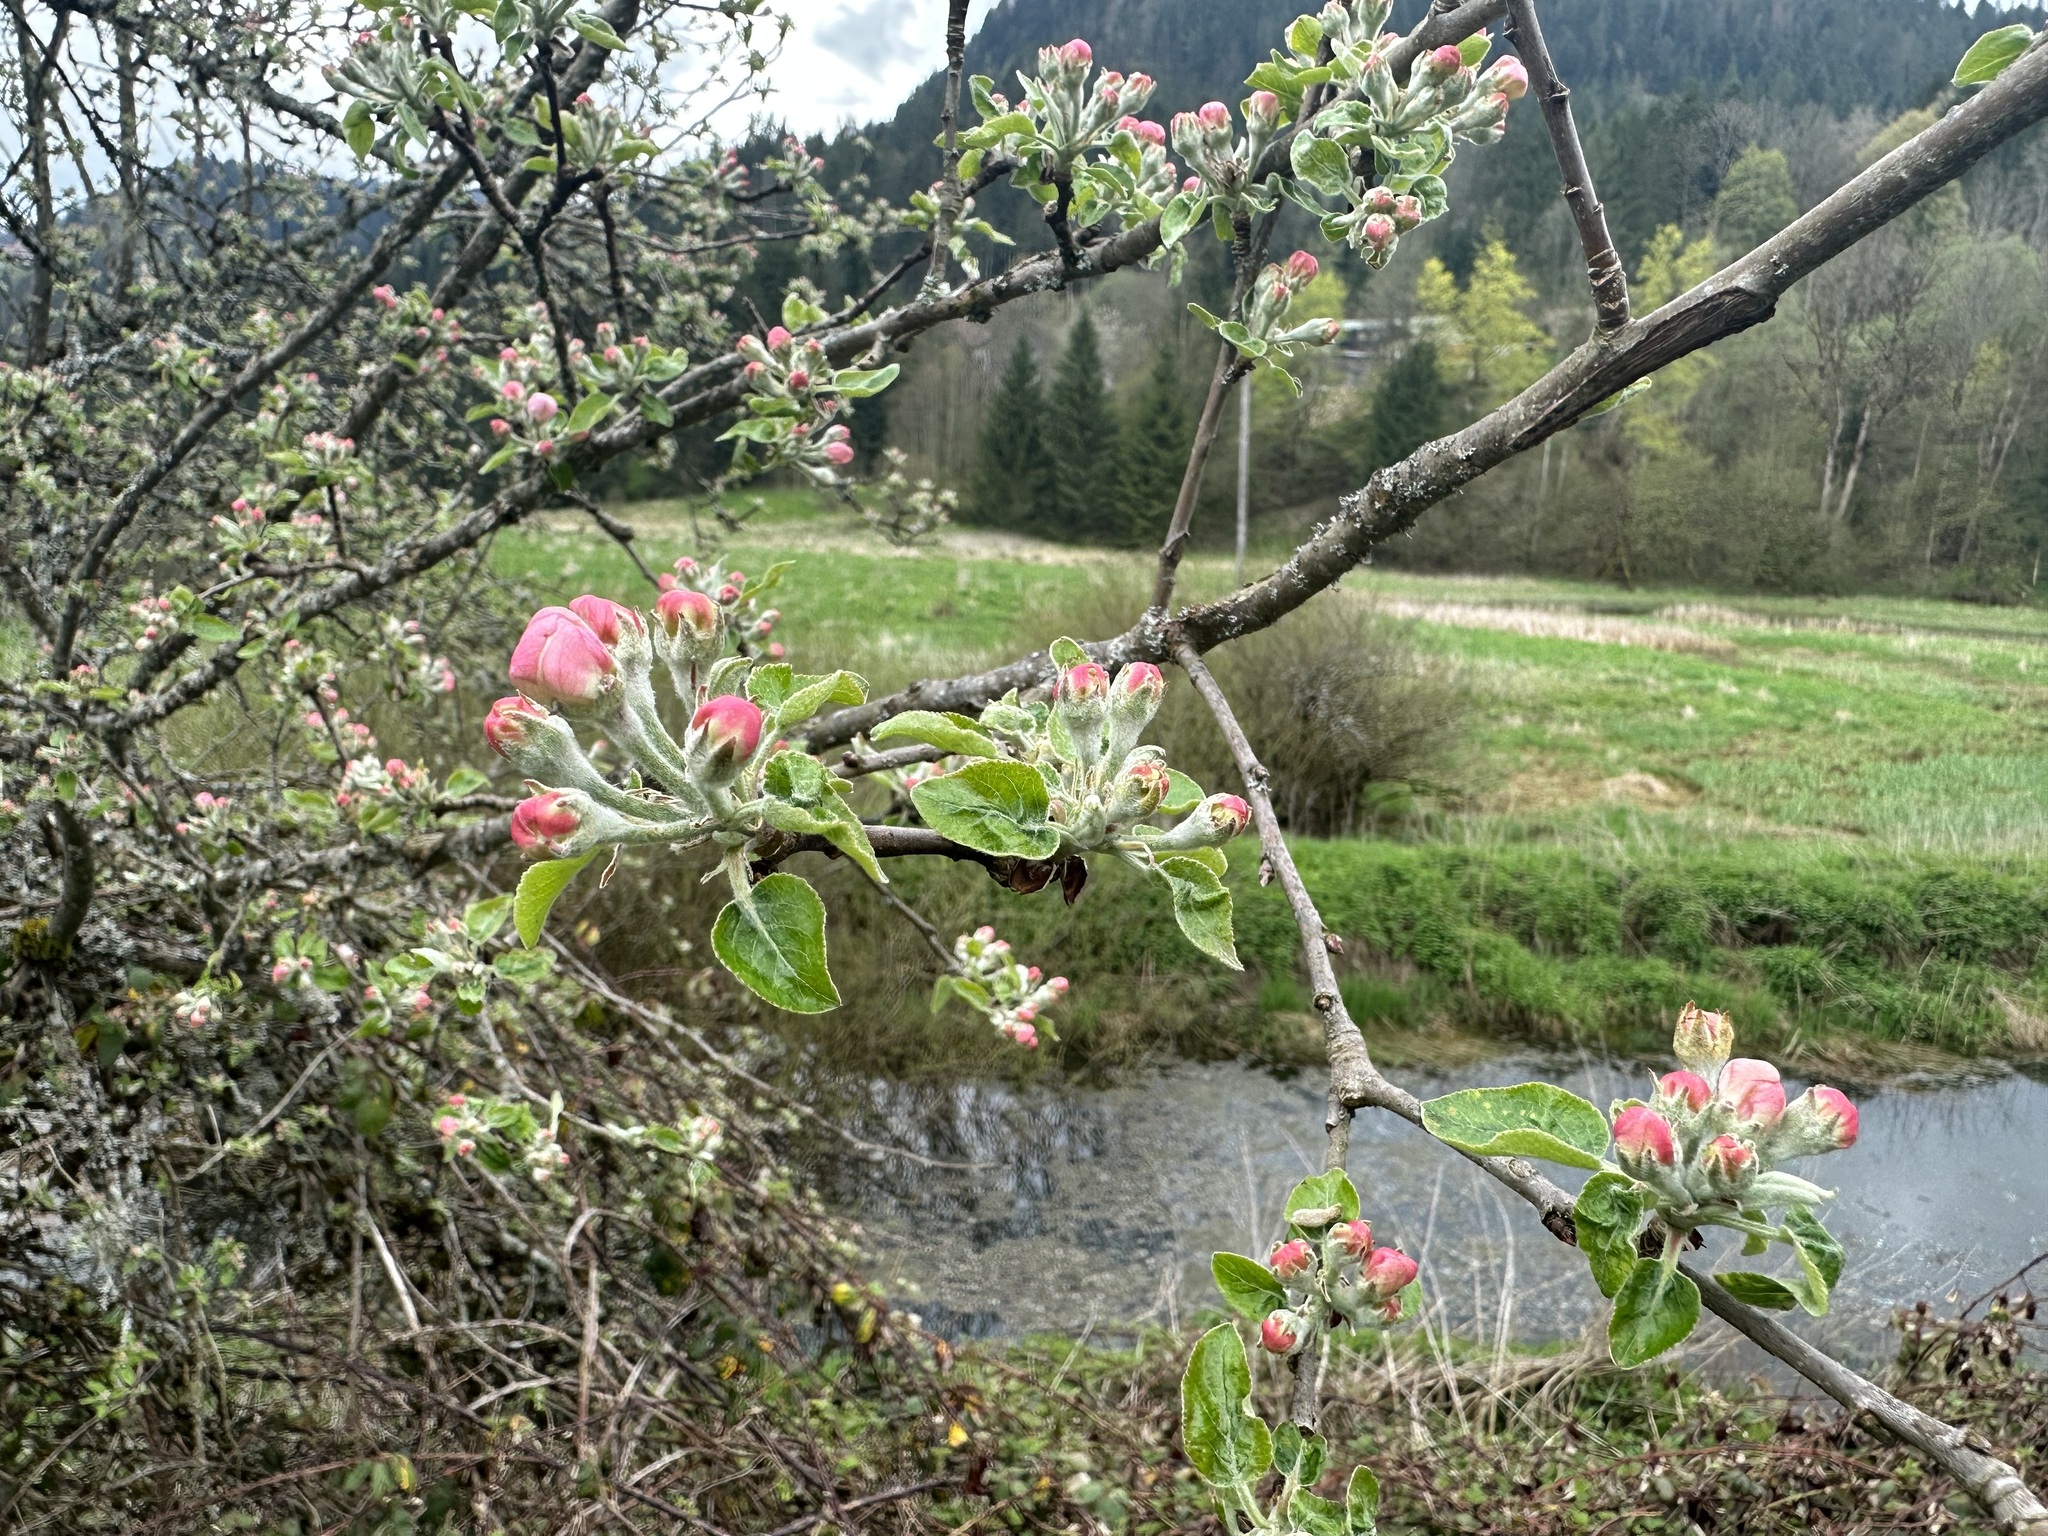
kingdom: Plantae
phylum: Tracheophyta
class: Magnoliopsida
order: Rosales
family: Rosaceae
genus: Malus
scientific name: Malus domestica
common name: Apple
